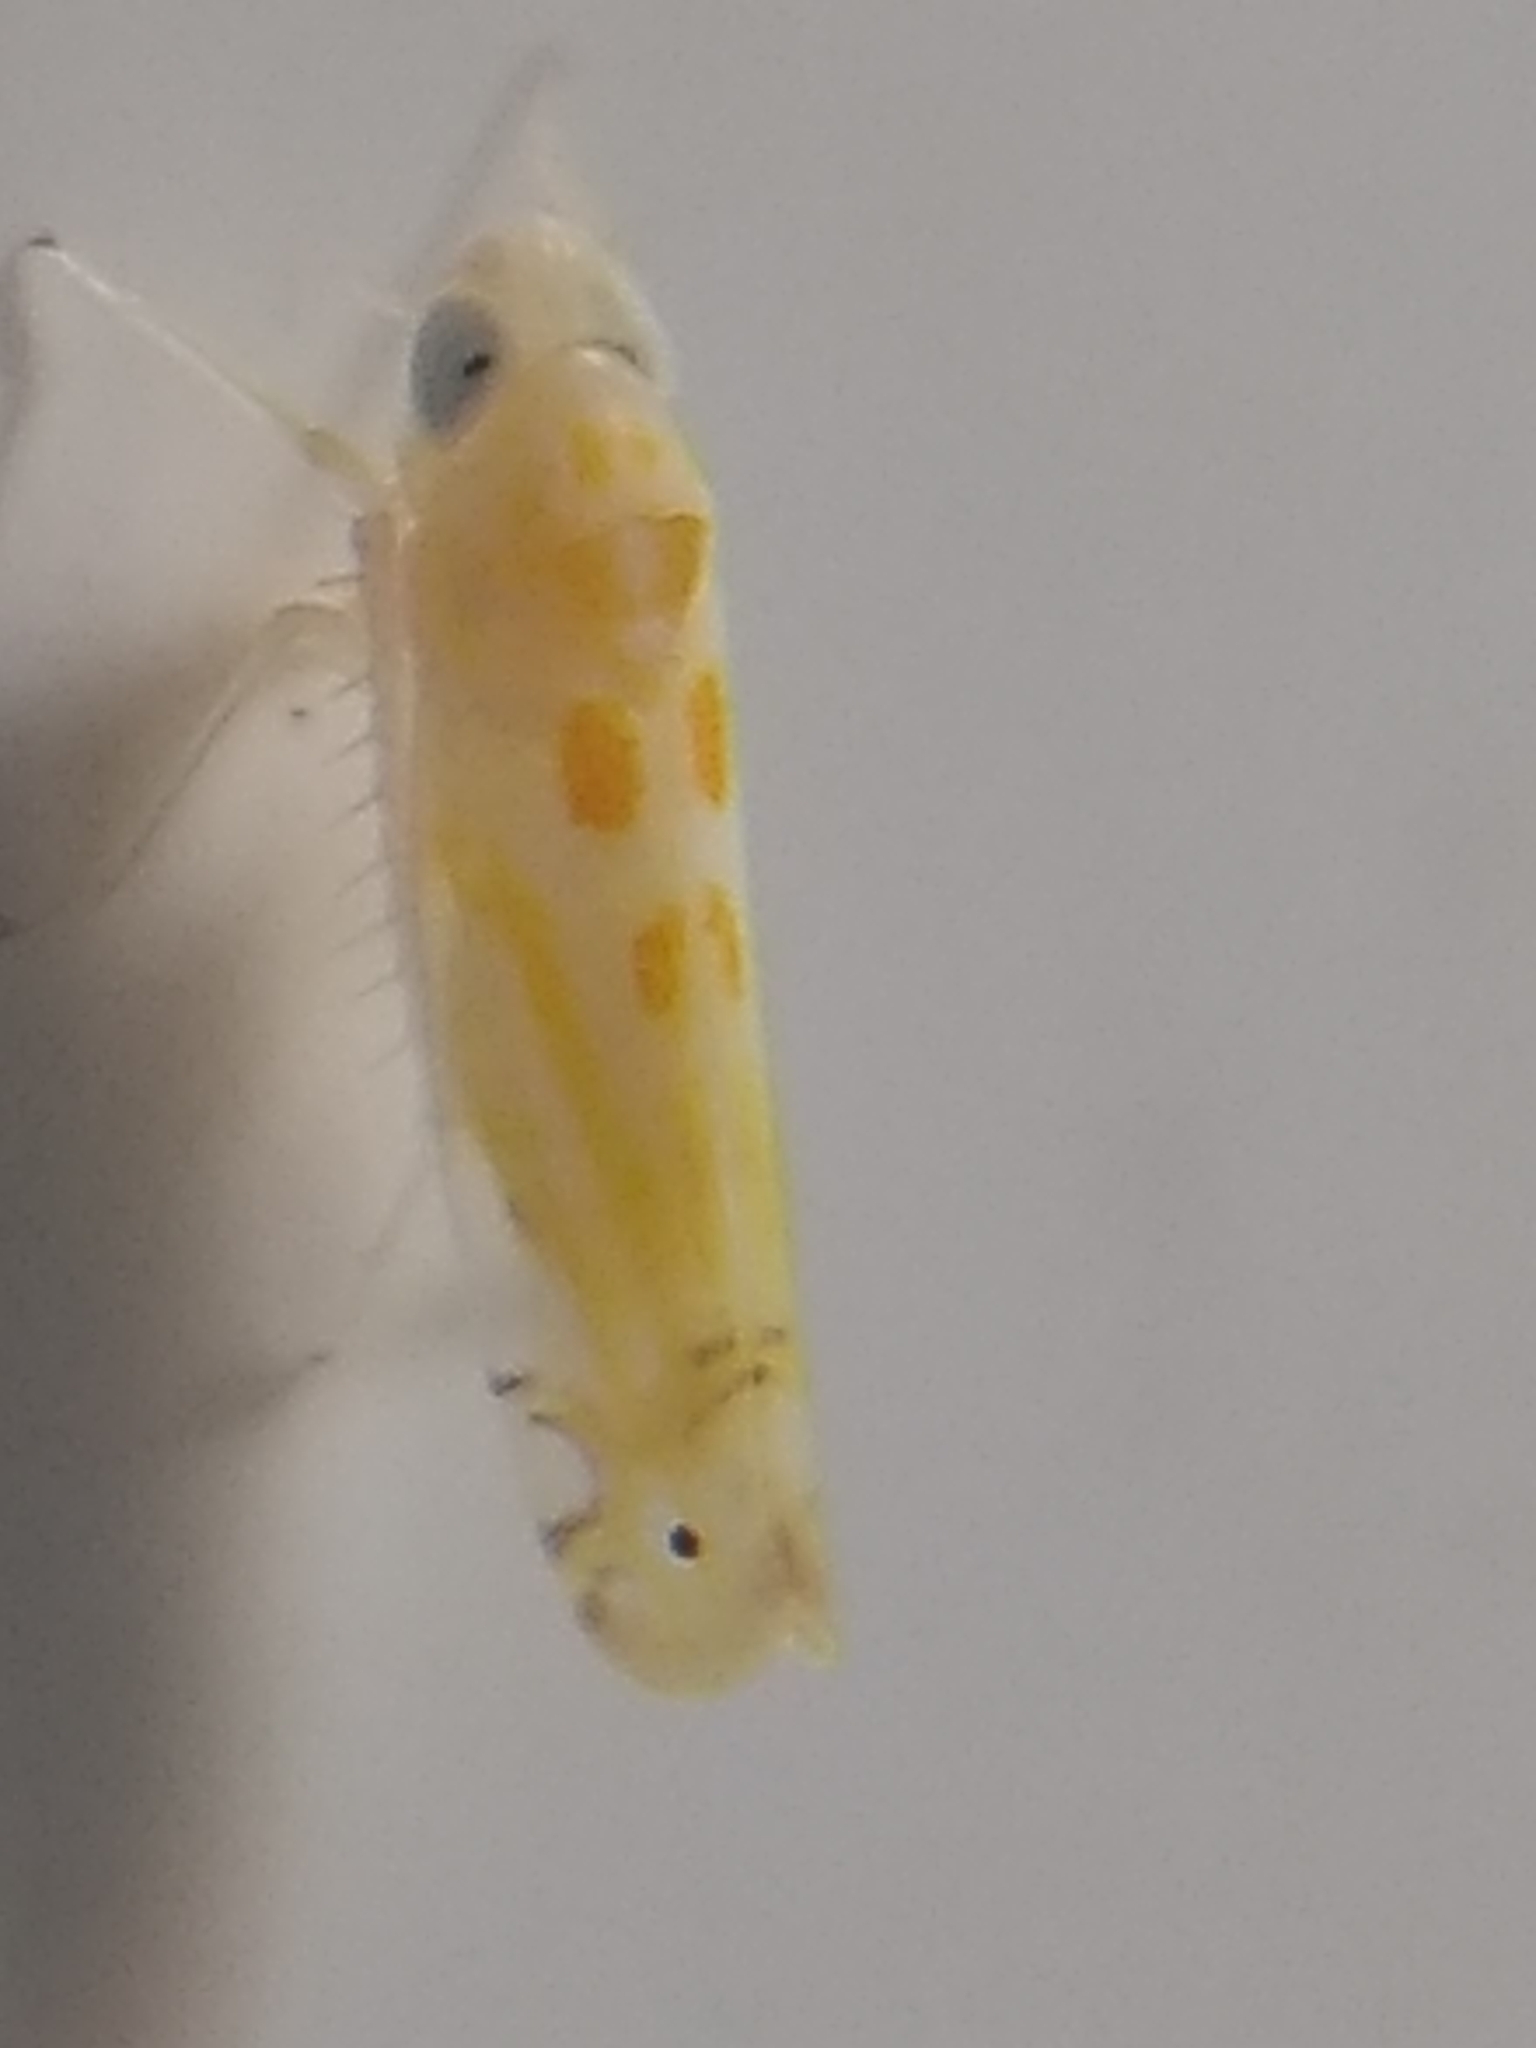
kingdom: Animalia
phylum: Arthropoda
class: Insecta
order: Hemiptera
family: Cicadellidae
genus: Alconeura
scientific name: Alconeura quadrimaculata
